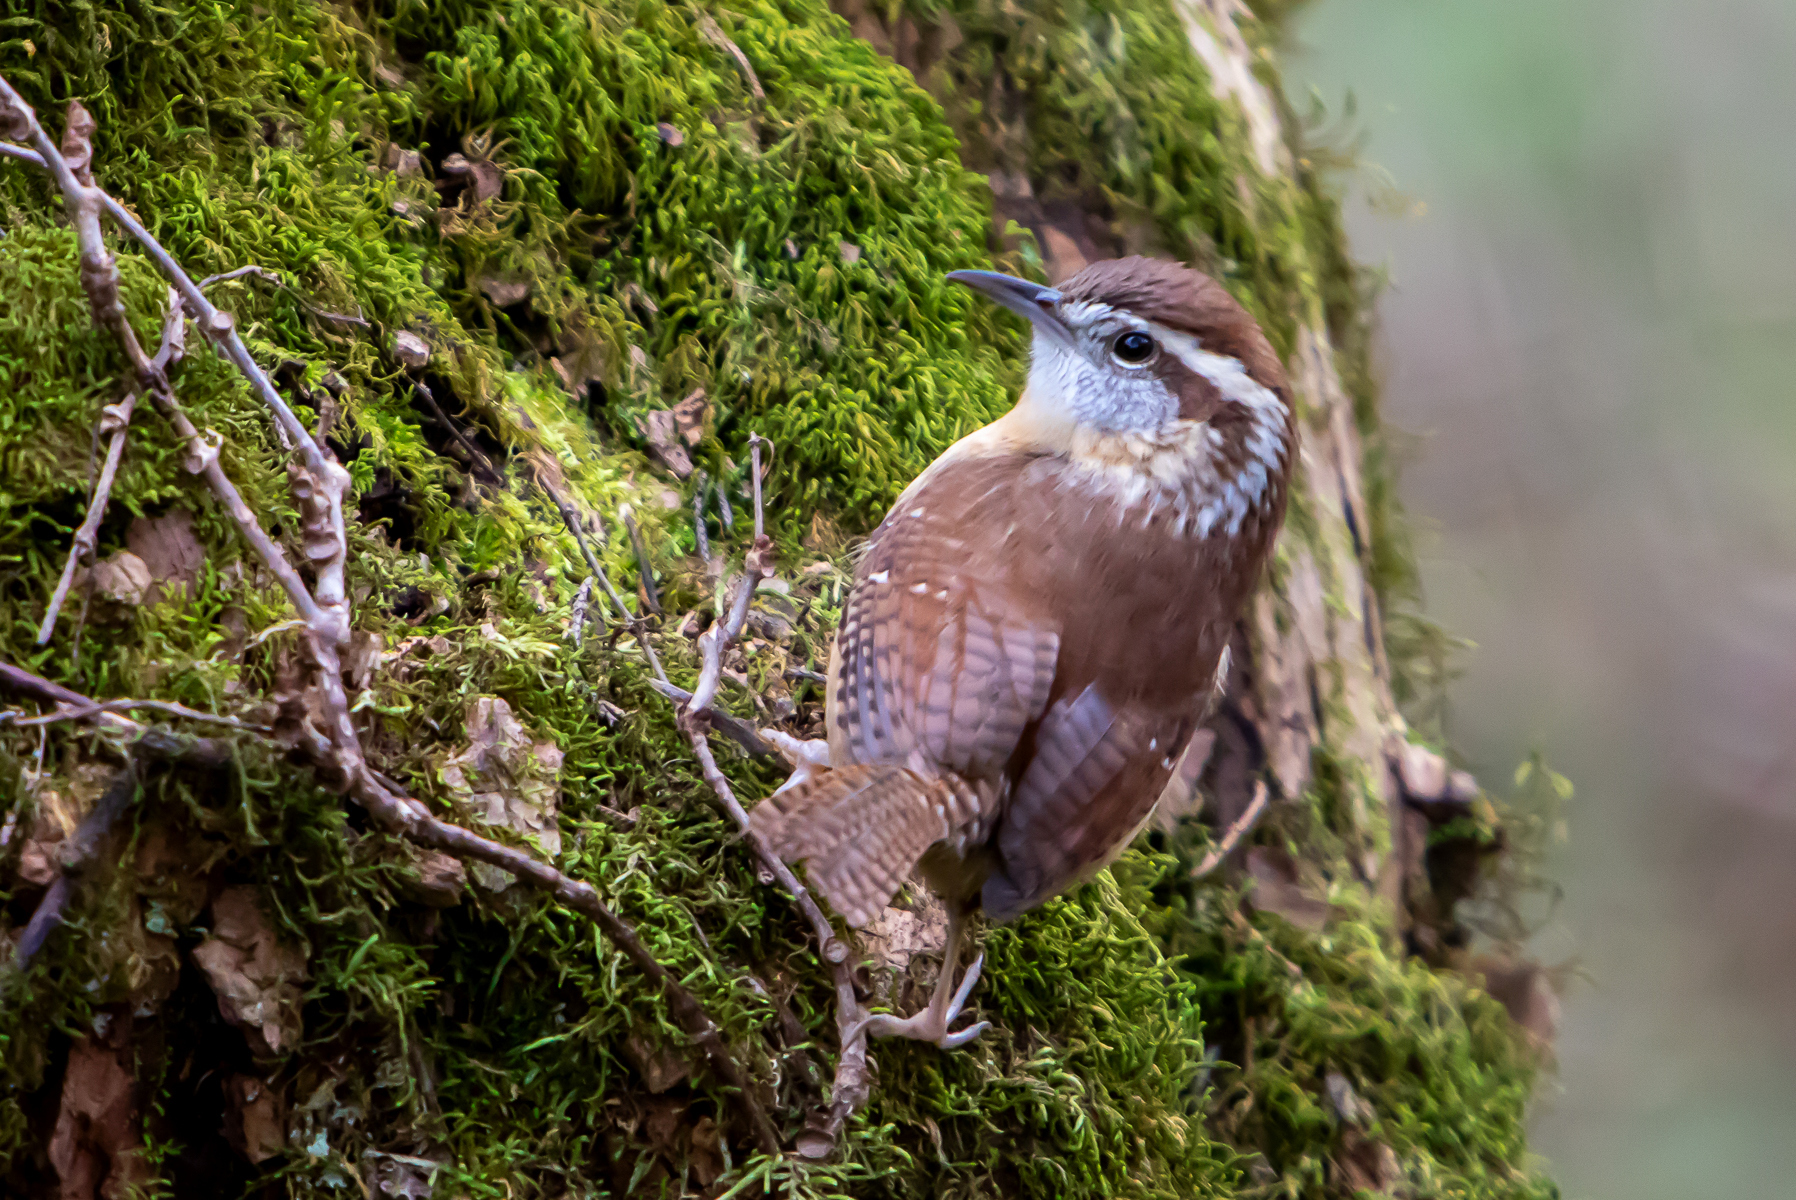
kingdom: Animalia
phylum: Chordata
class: Aves
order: Passeriformes
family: Troglodytidae
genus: Thryothorus
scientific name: Thryothorus ludovicianus
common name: Carolina wren
